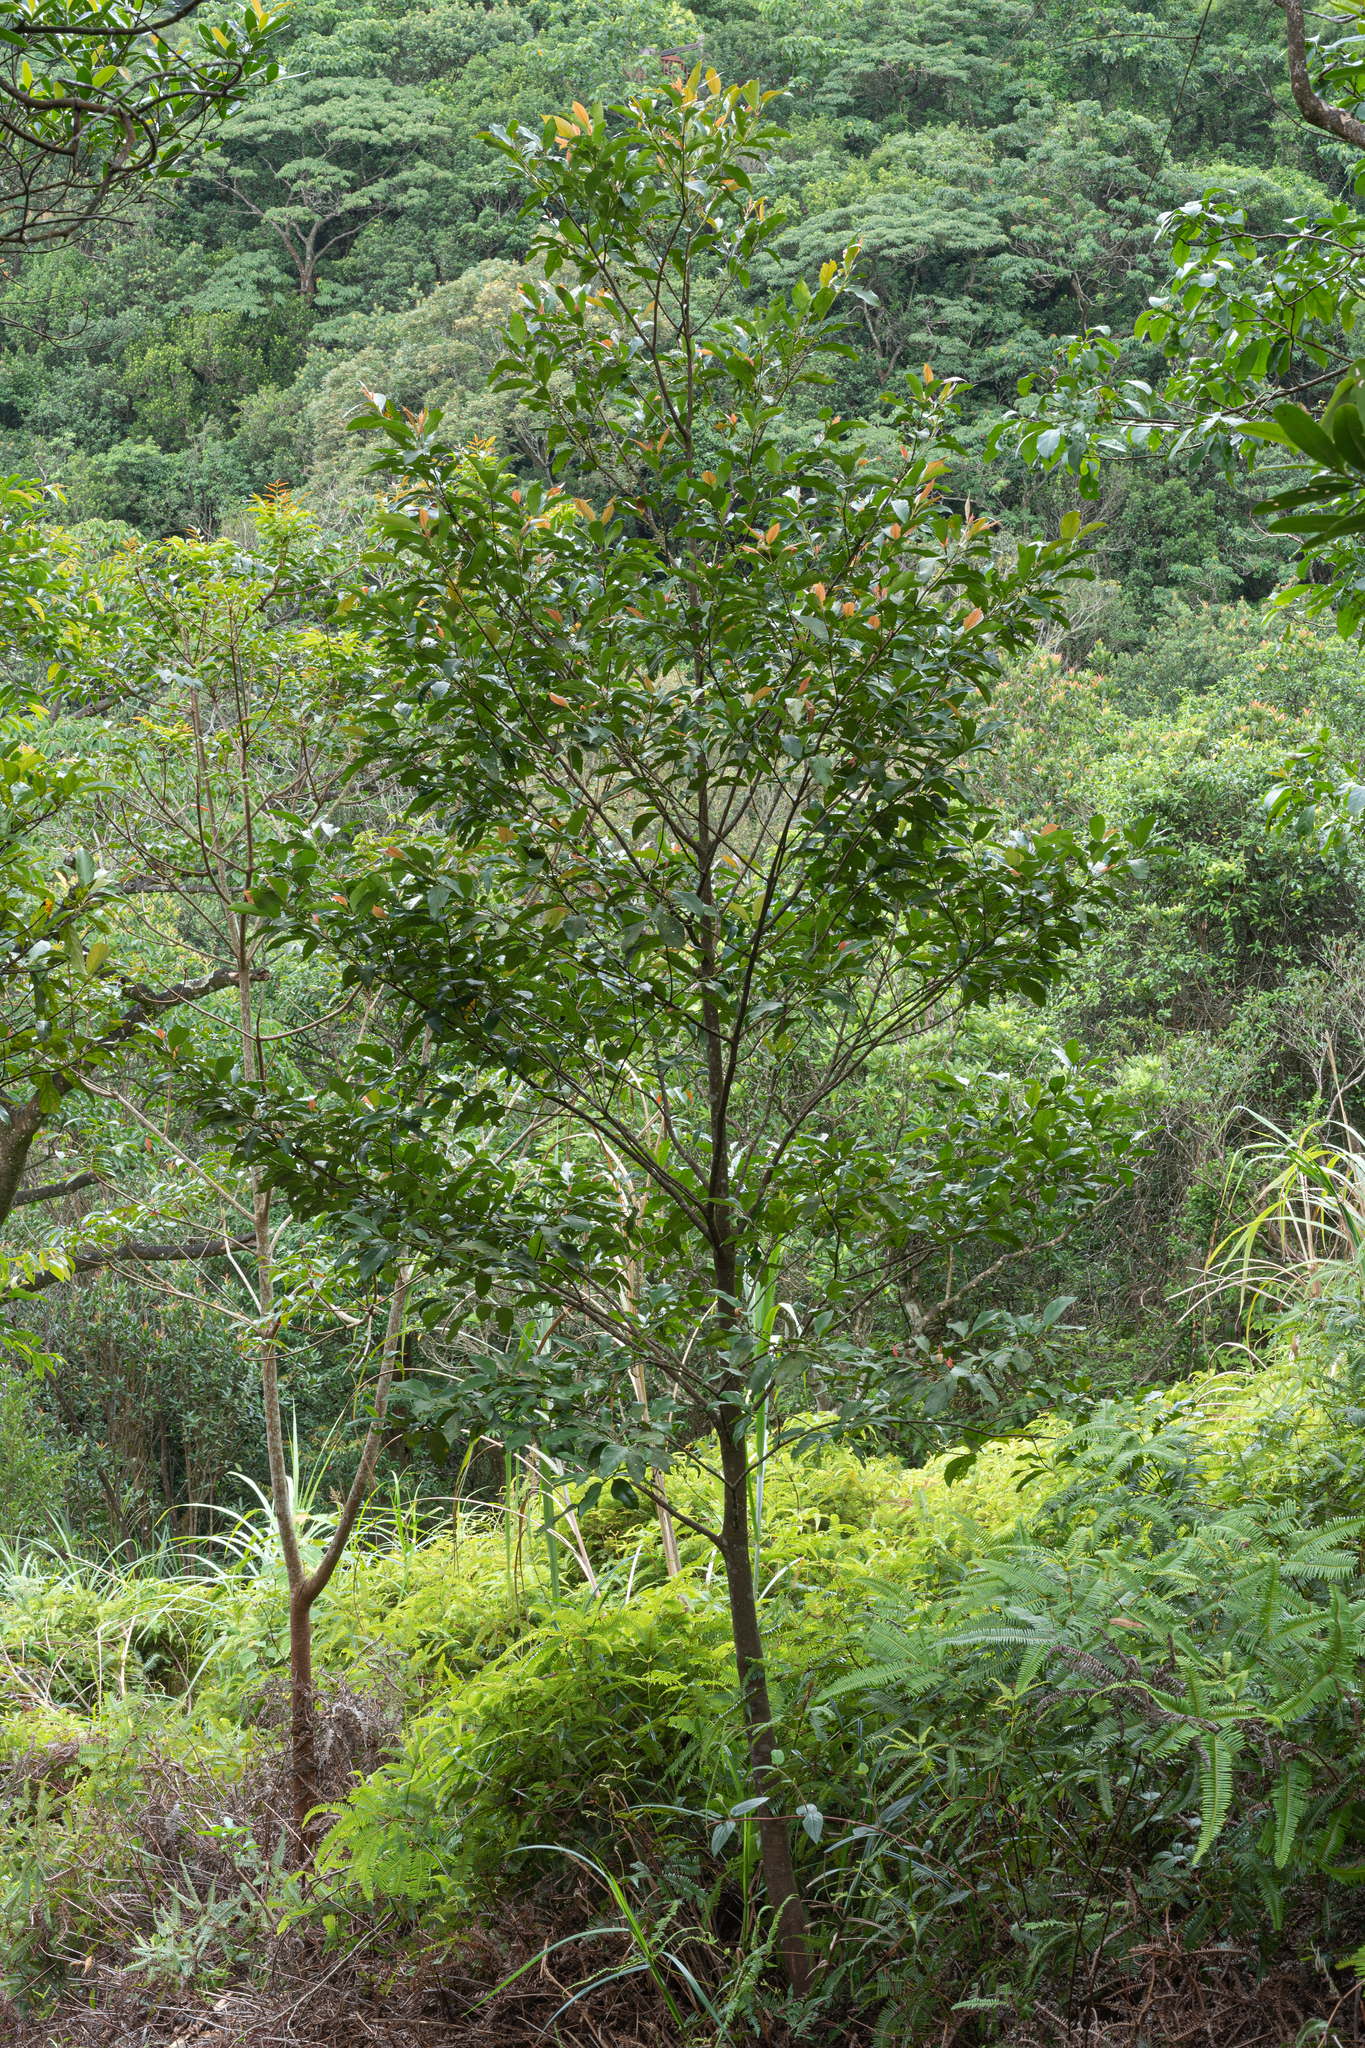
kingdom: Plantae
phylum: Tracheophyta
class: Magnoliopsida
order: Gentianales
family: Rubiaceae
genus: Aidia
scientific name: Aidia cochinchinensis
